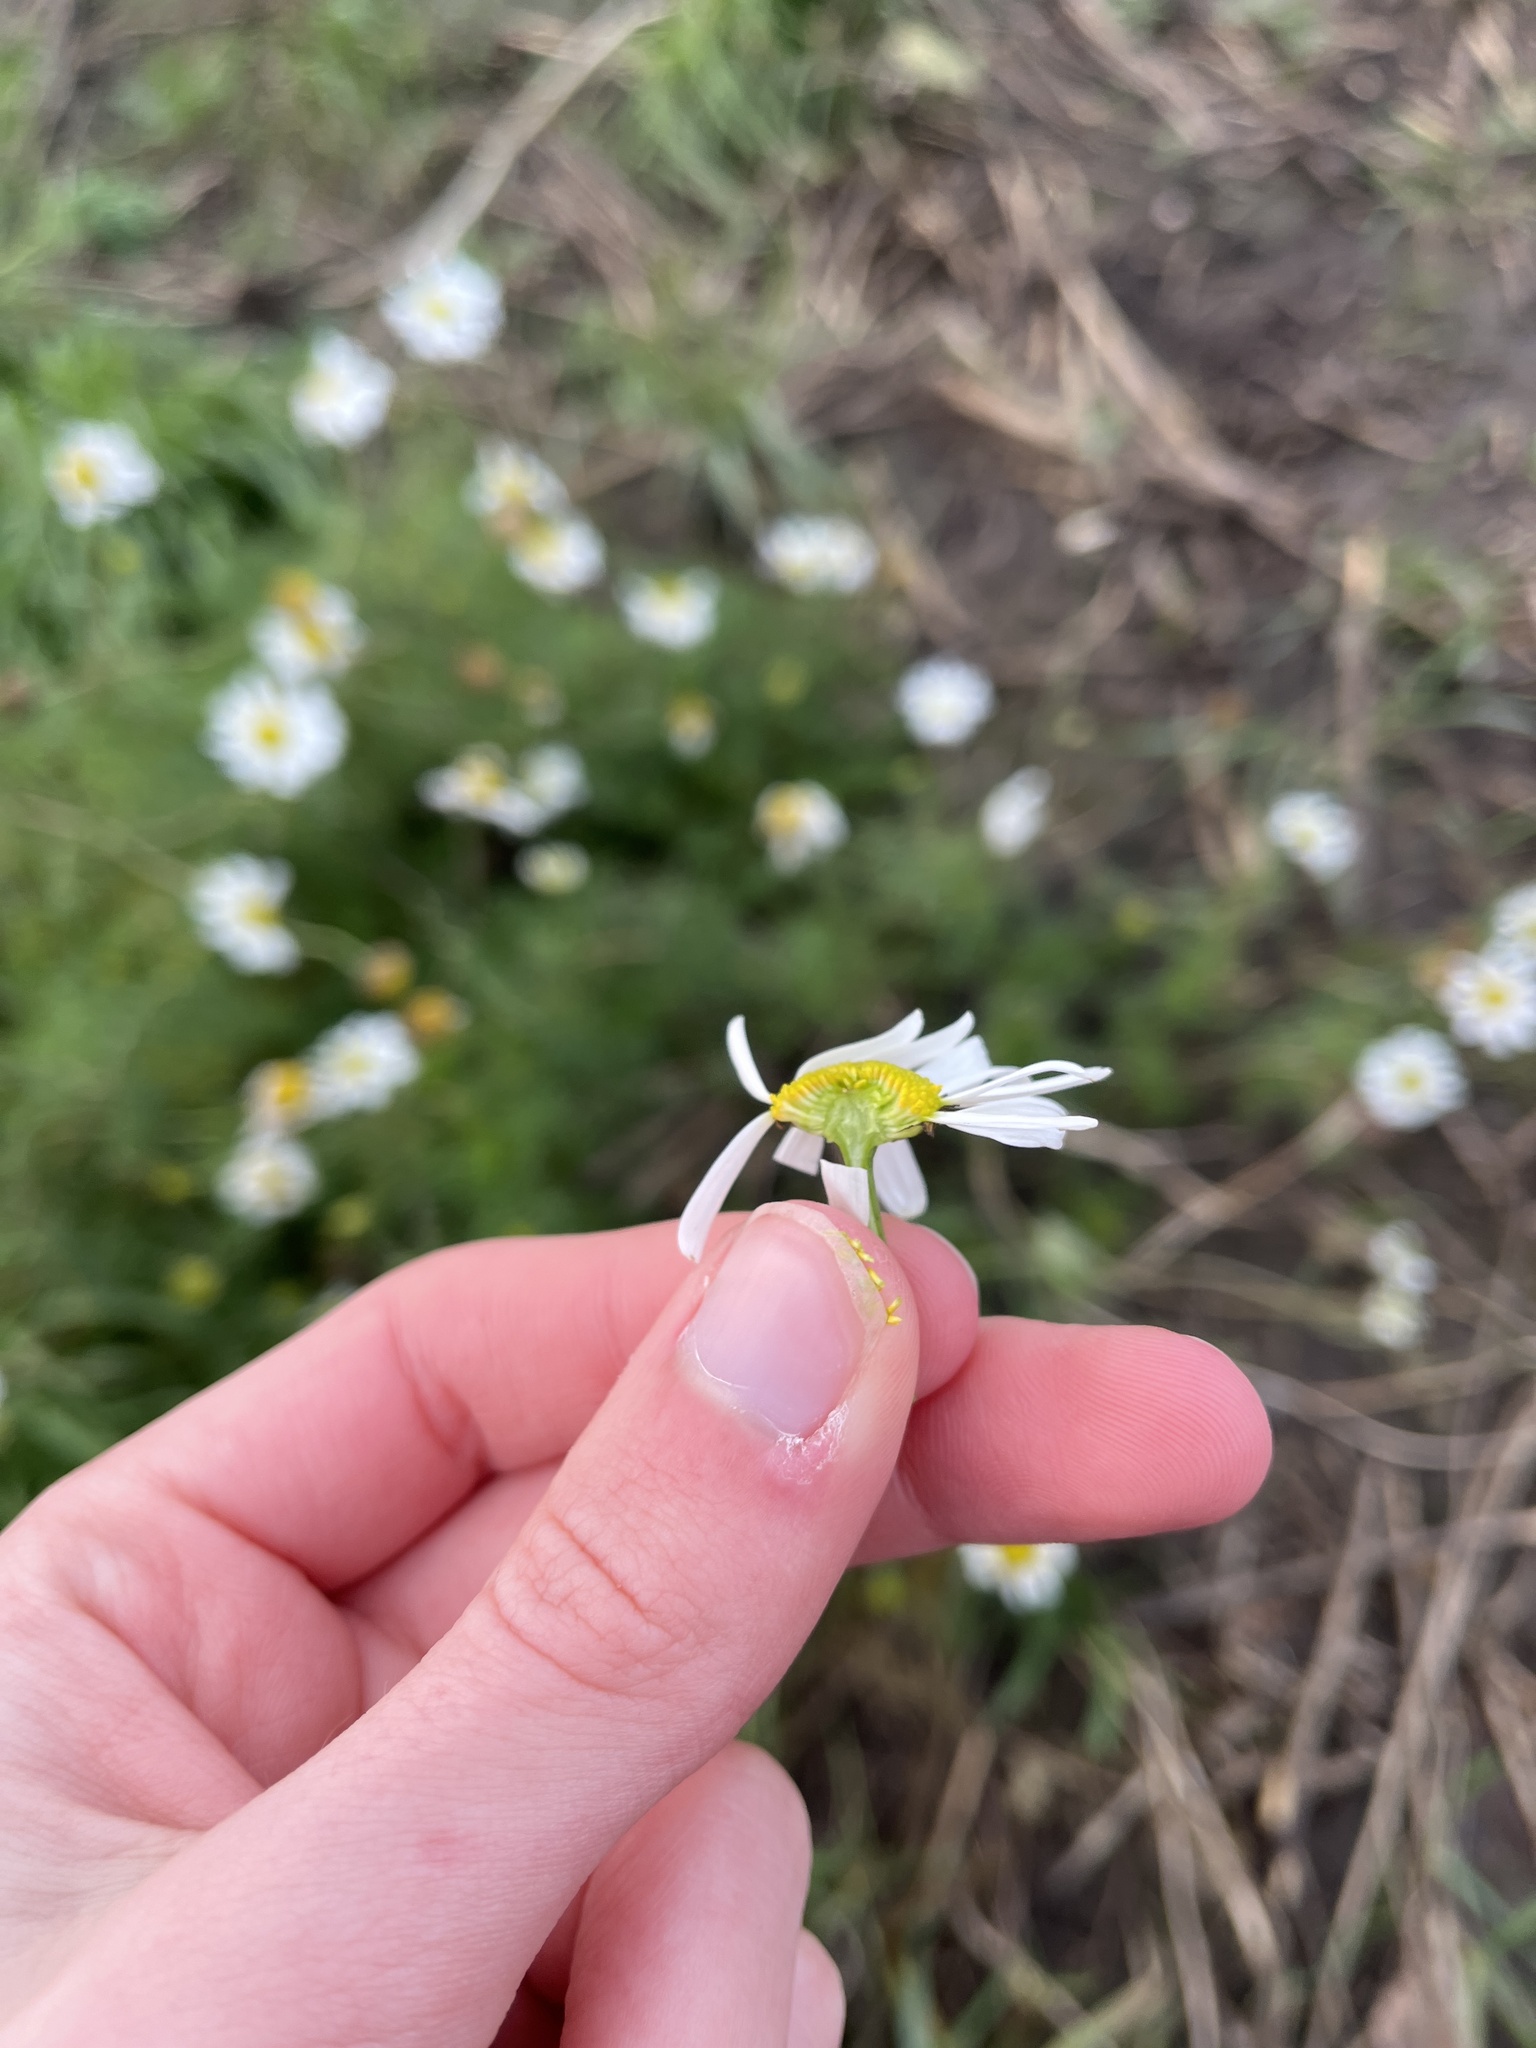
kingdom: Plantae
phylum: Tracheophyta
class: Magnoliopsida
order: Asterales
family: Asteraceae
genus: Tripleurospermum
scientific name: Tripleurospermum inodorum
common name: Scentless mayweed
